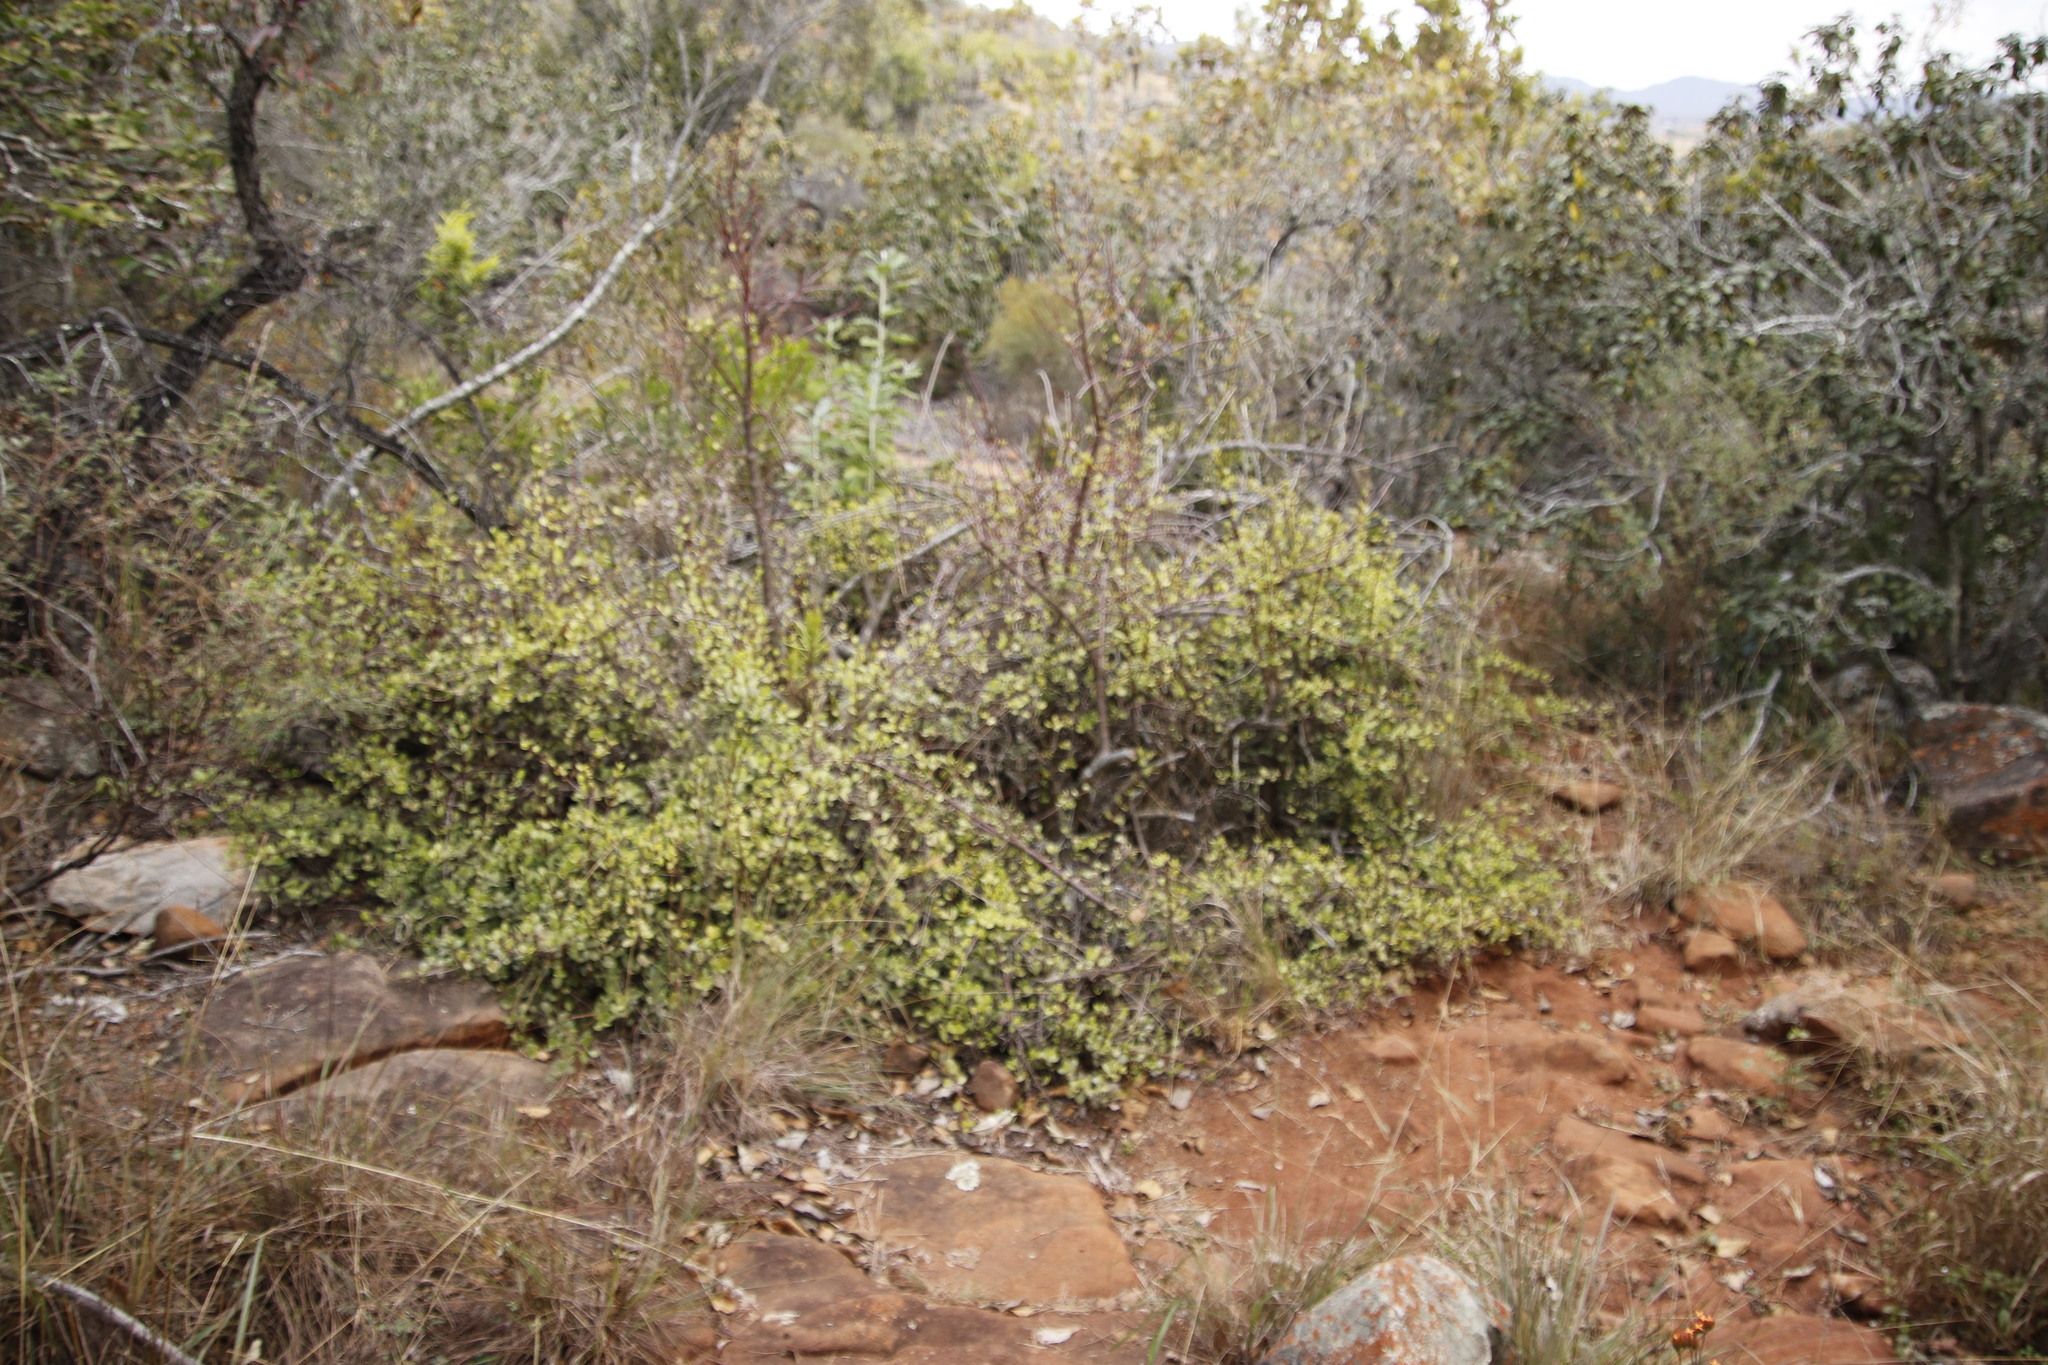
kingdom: Plantae
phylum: Tracheophyta
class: Magnoliopsida
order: Caryophyllales
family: Didiereaceae
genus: Portulacaria
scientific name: Portulacaria afra
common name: Elephant-bush
